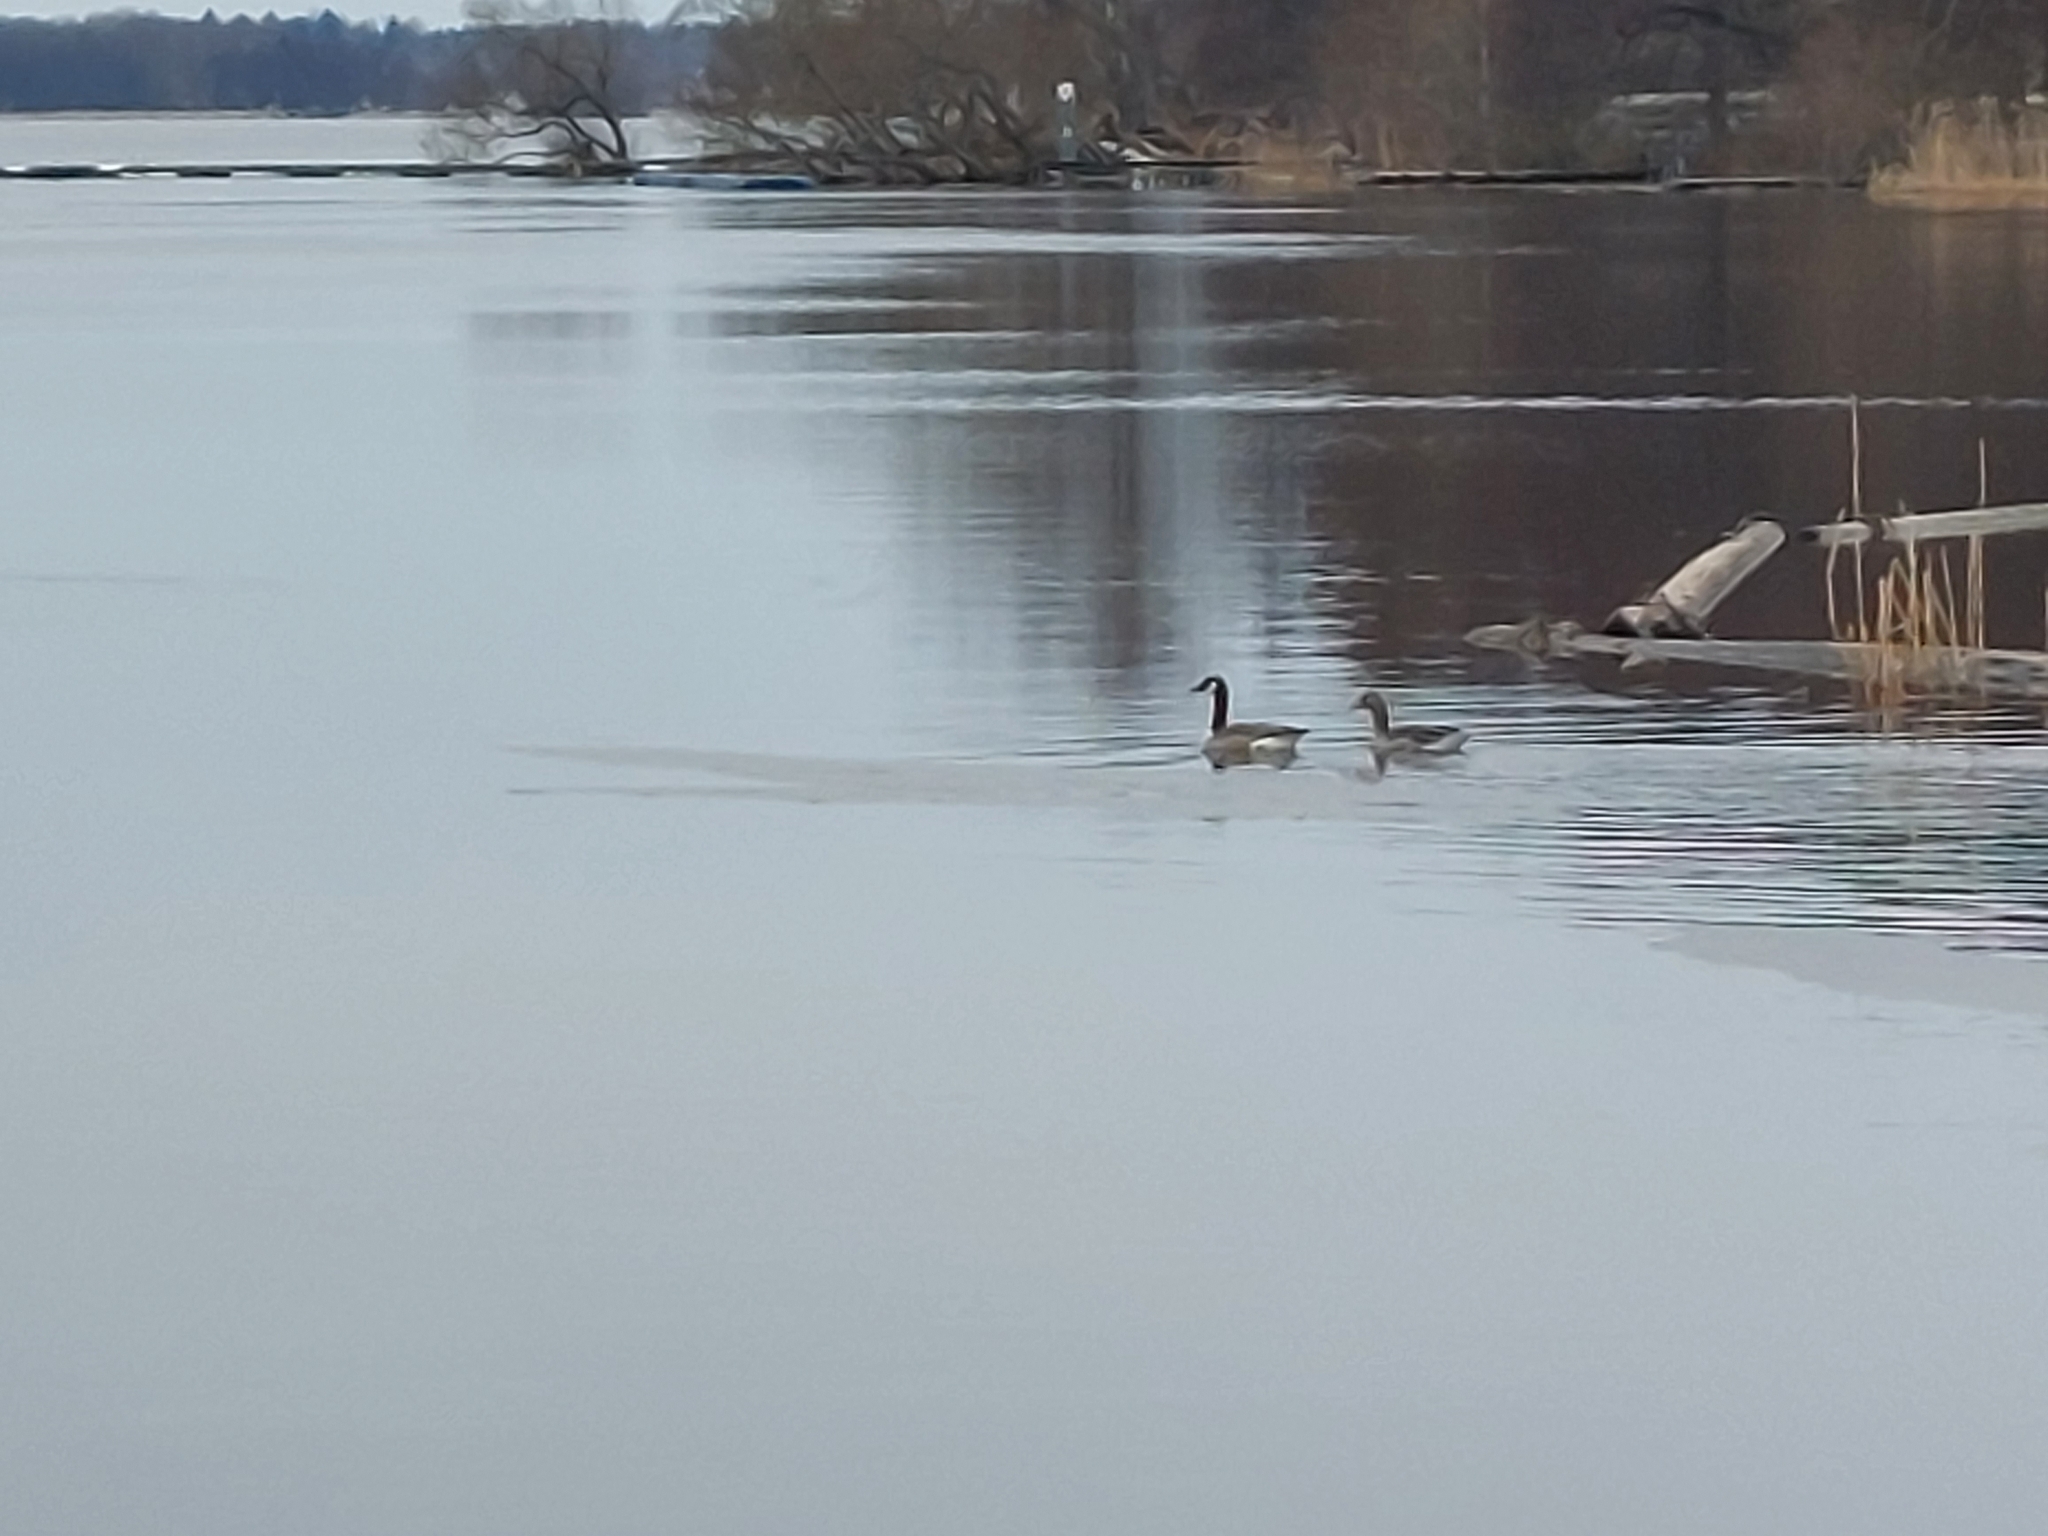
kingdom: Animalia
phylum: Chordata
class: Aves
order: Anseriformes
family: Anatidae
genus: Branta
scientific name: Branta canadensis
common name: Canada goose
